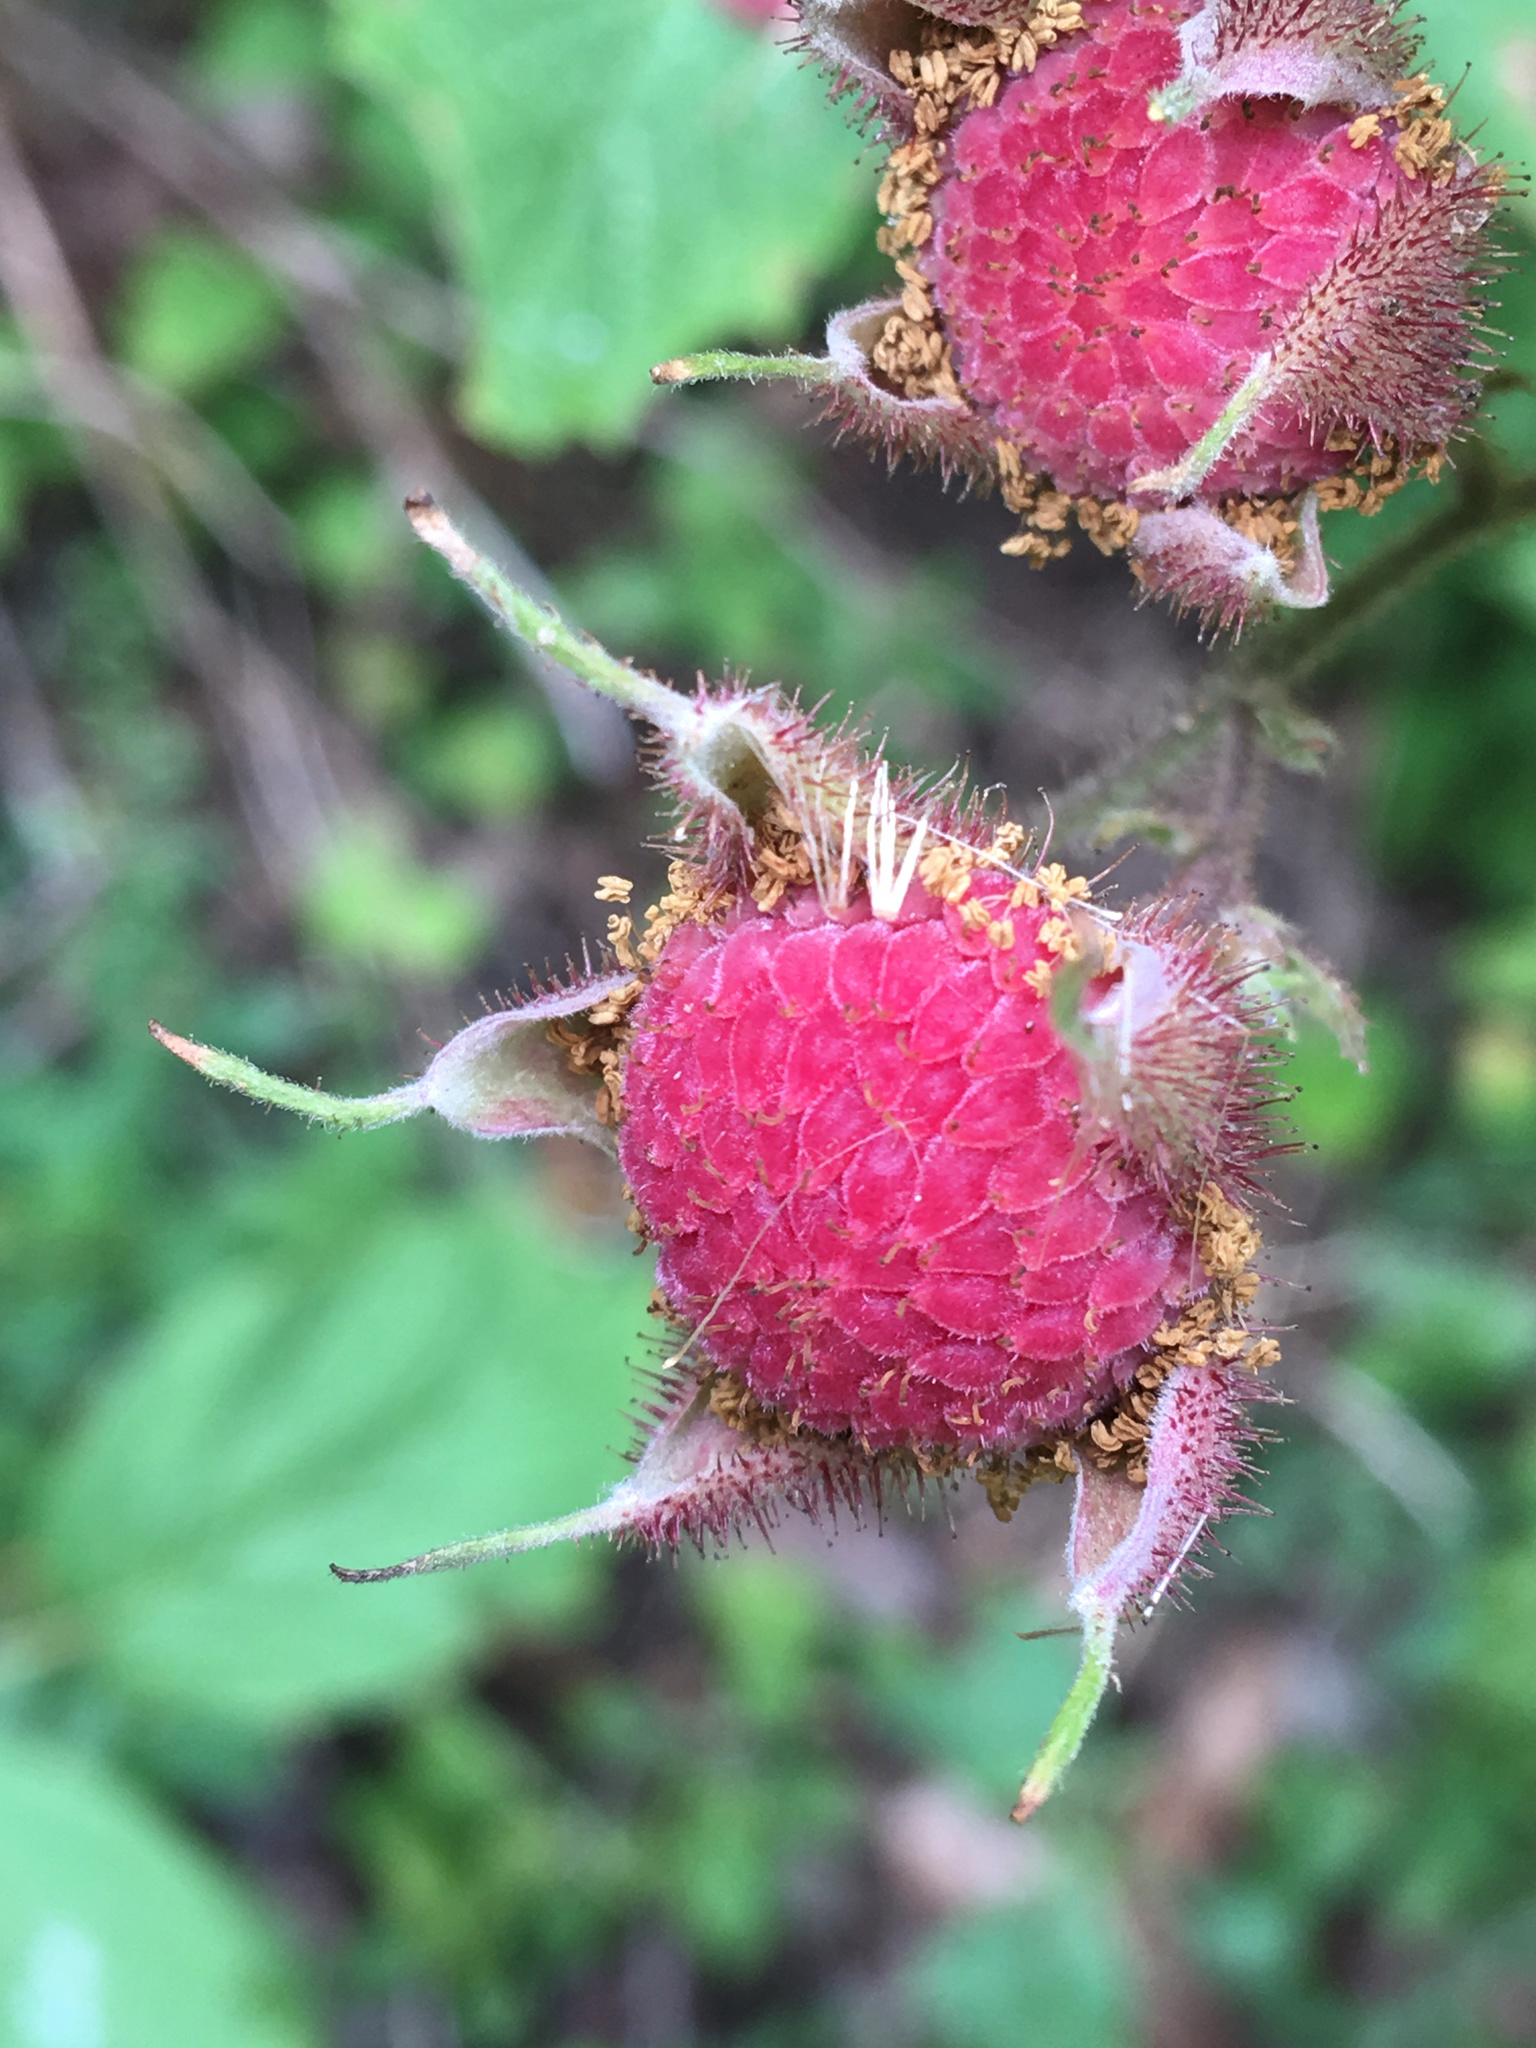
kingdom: Plantae
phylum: Tracheophyta
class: Magnoliopsida
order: Rosales
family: Rosaceae
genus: Rubus
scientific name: Rubus odoratus
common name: Purple-flowered raspberry
